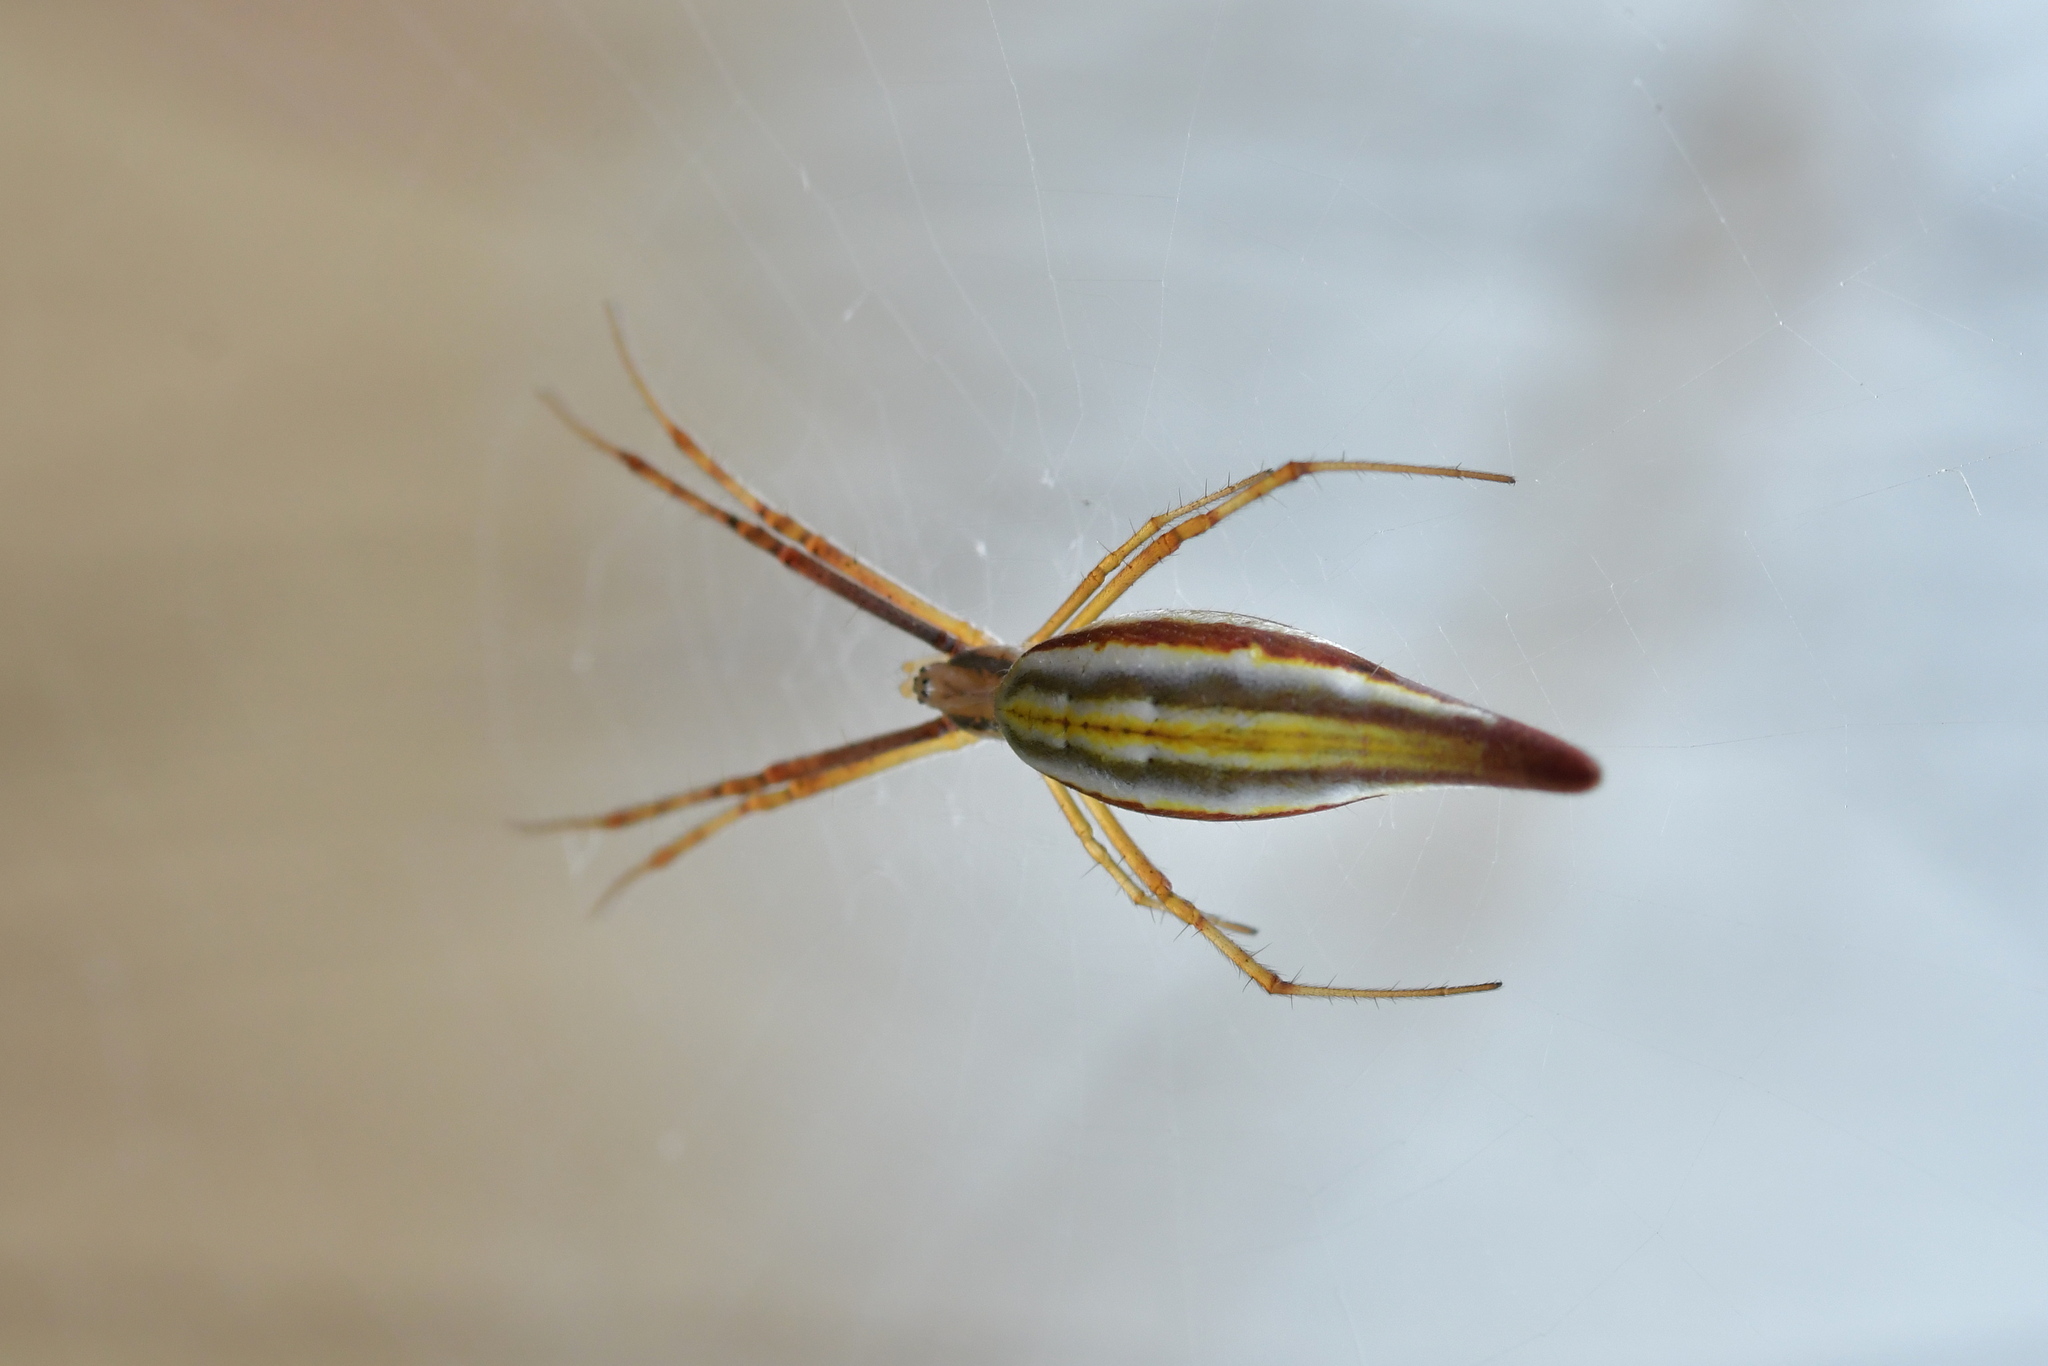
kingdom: Animalia
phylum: Arthropoda
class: Arachnida
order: Araneae
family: Araneidae
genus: Argiope
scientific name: Argiope protensa
